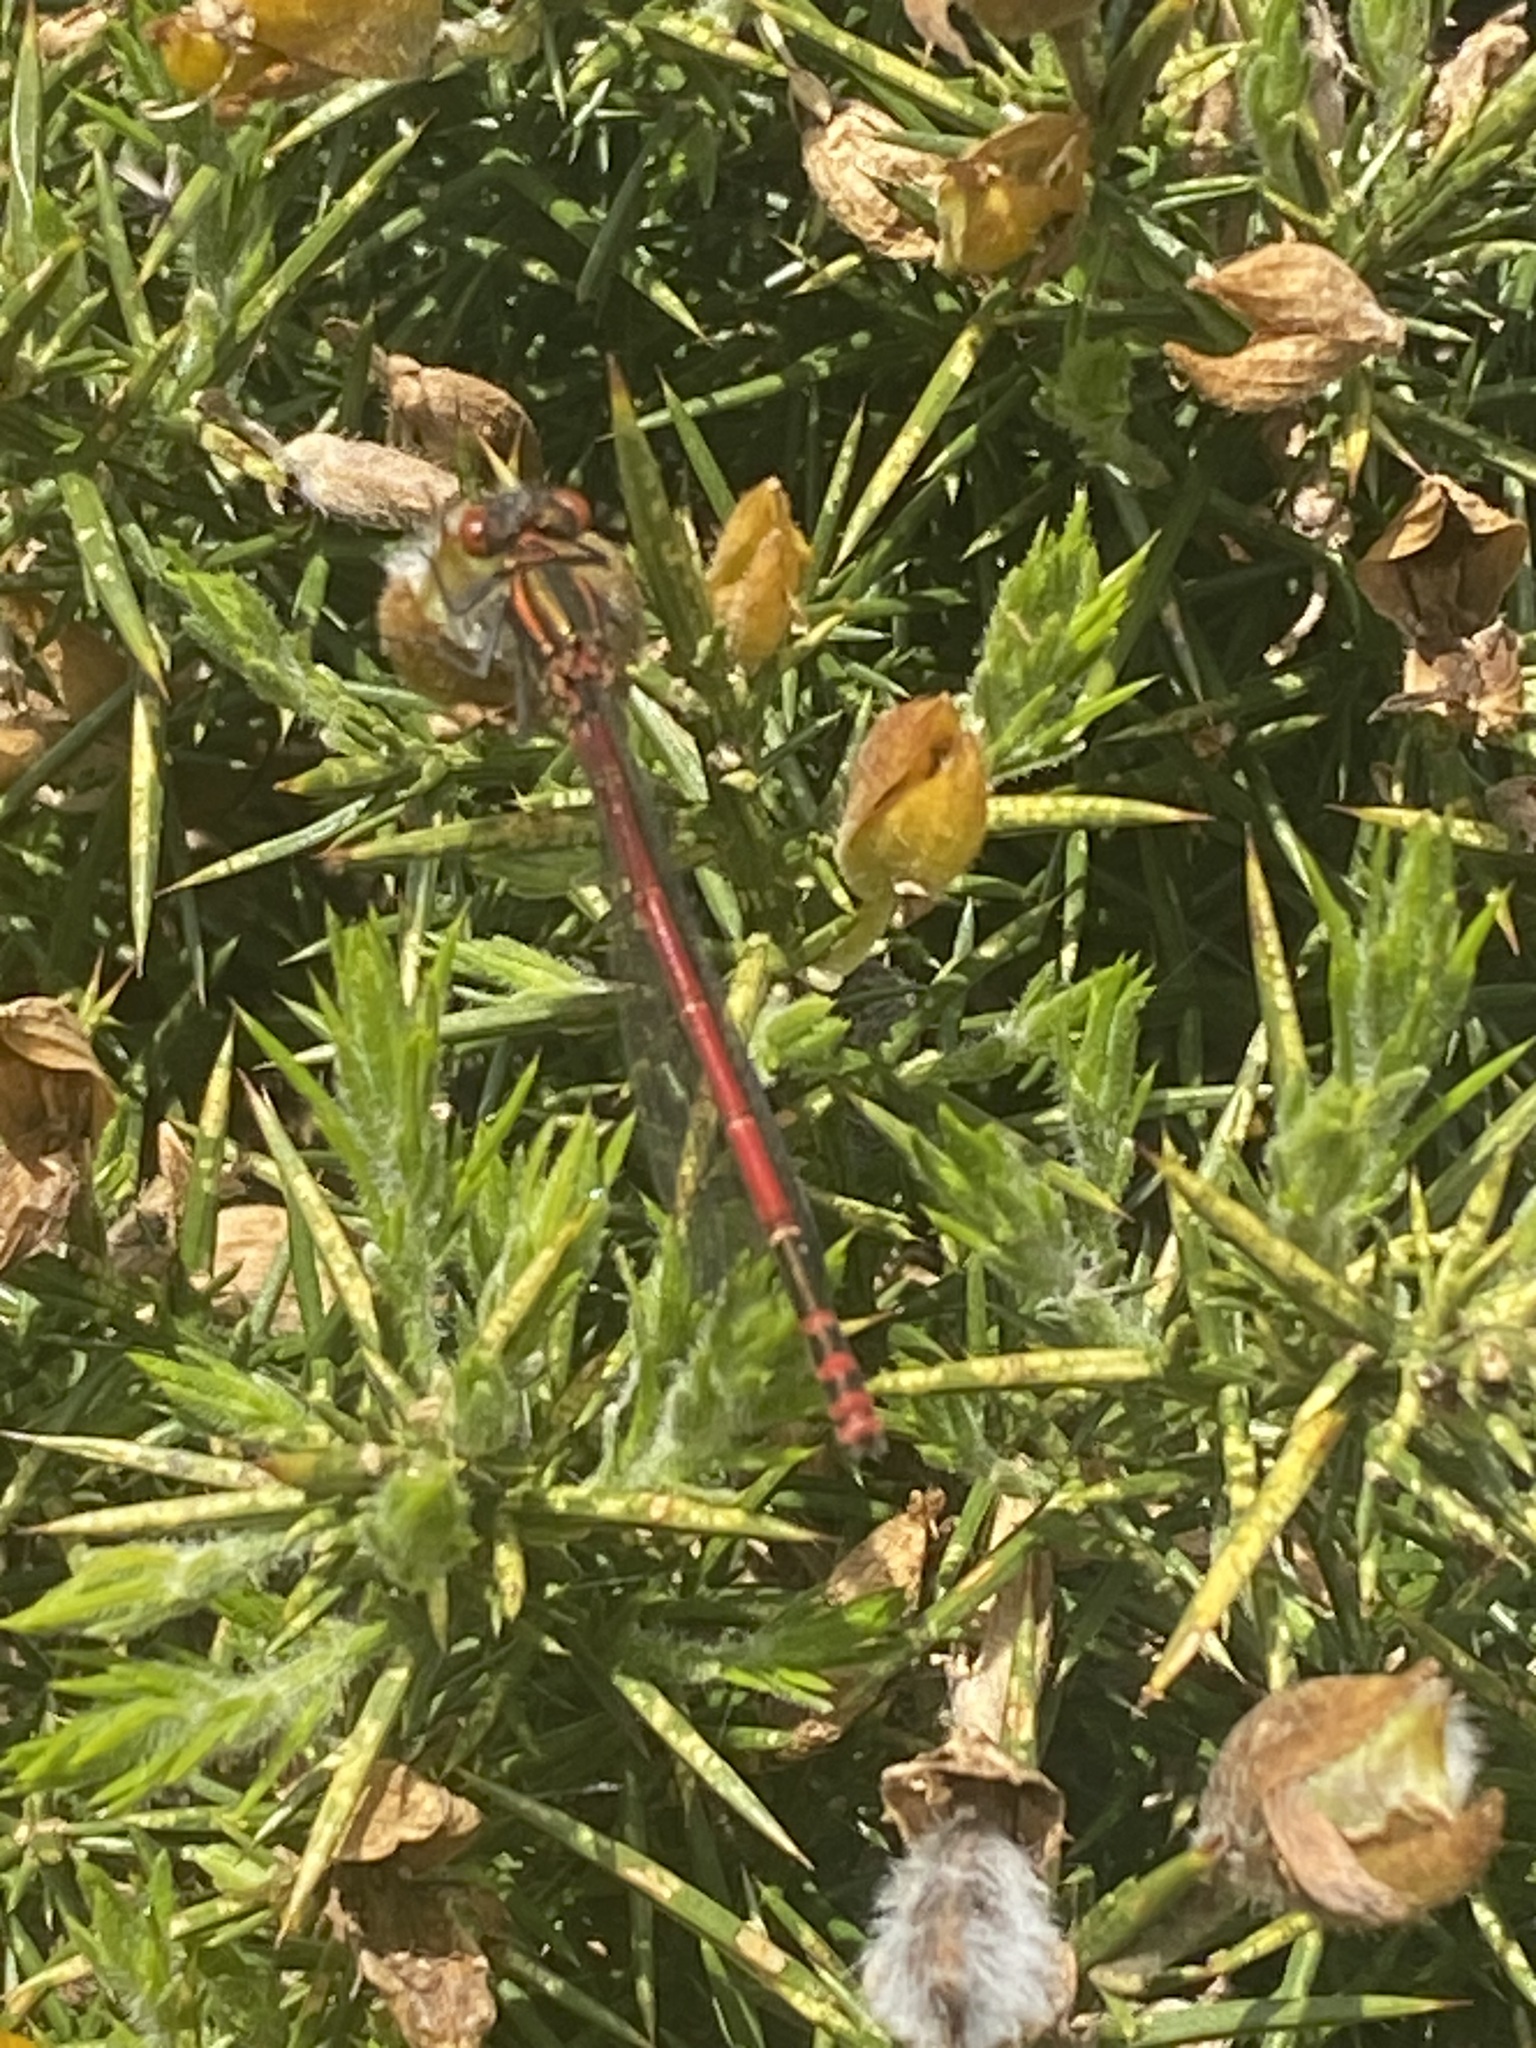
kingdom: Animalia
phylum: Arthropoda
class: Insecta
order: Odonata
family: Coenagrionidae
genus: Pyrrhosoma
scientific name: Pyrrhosoma nymphula
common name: Large red damsel
